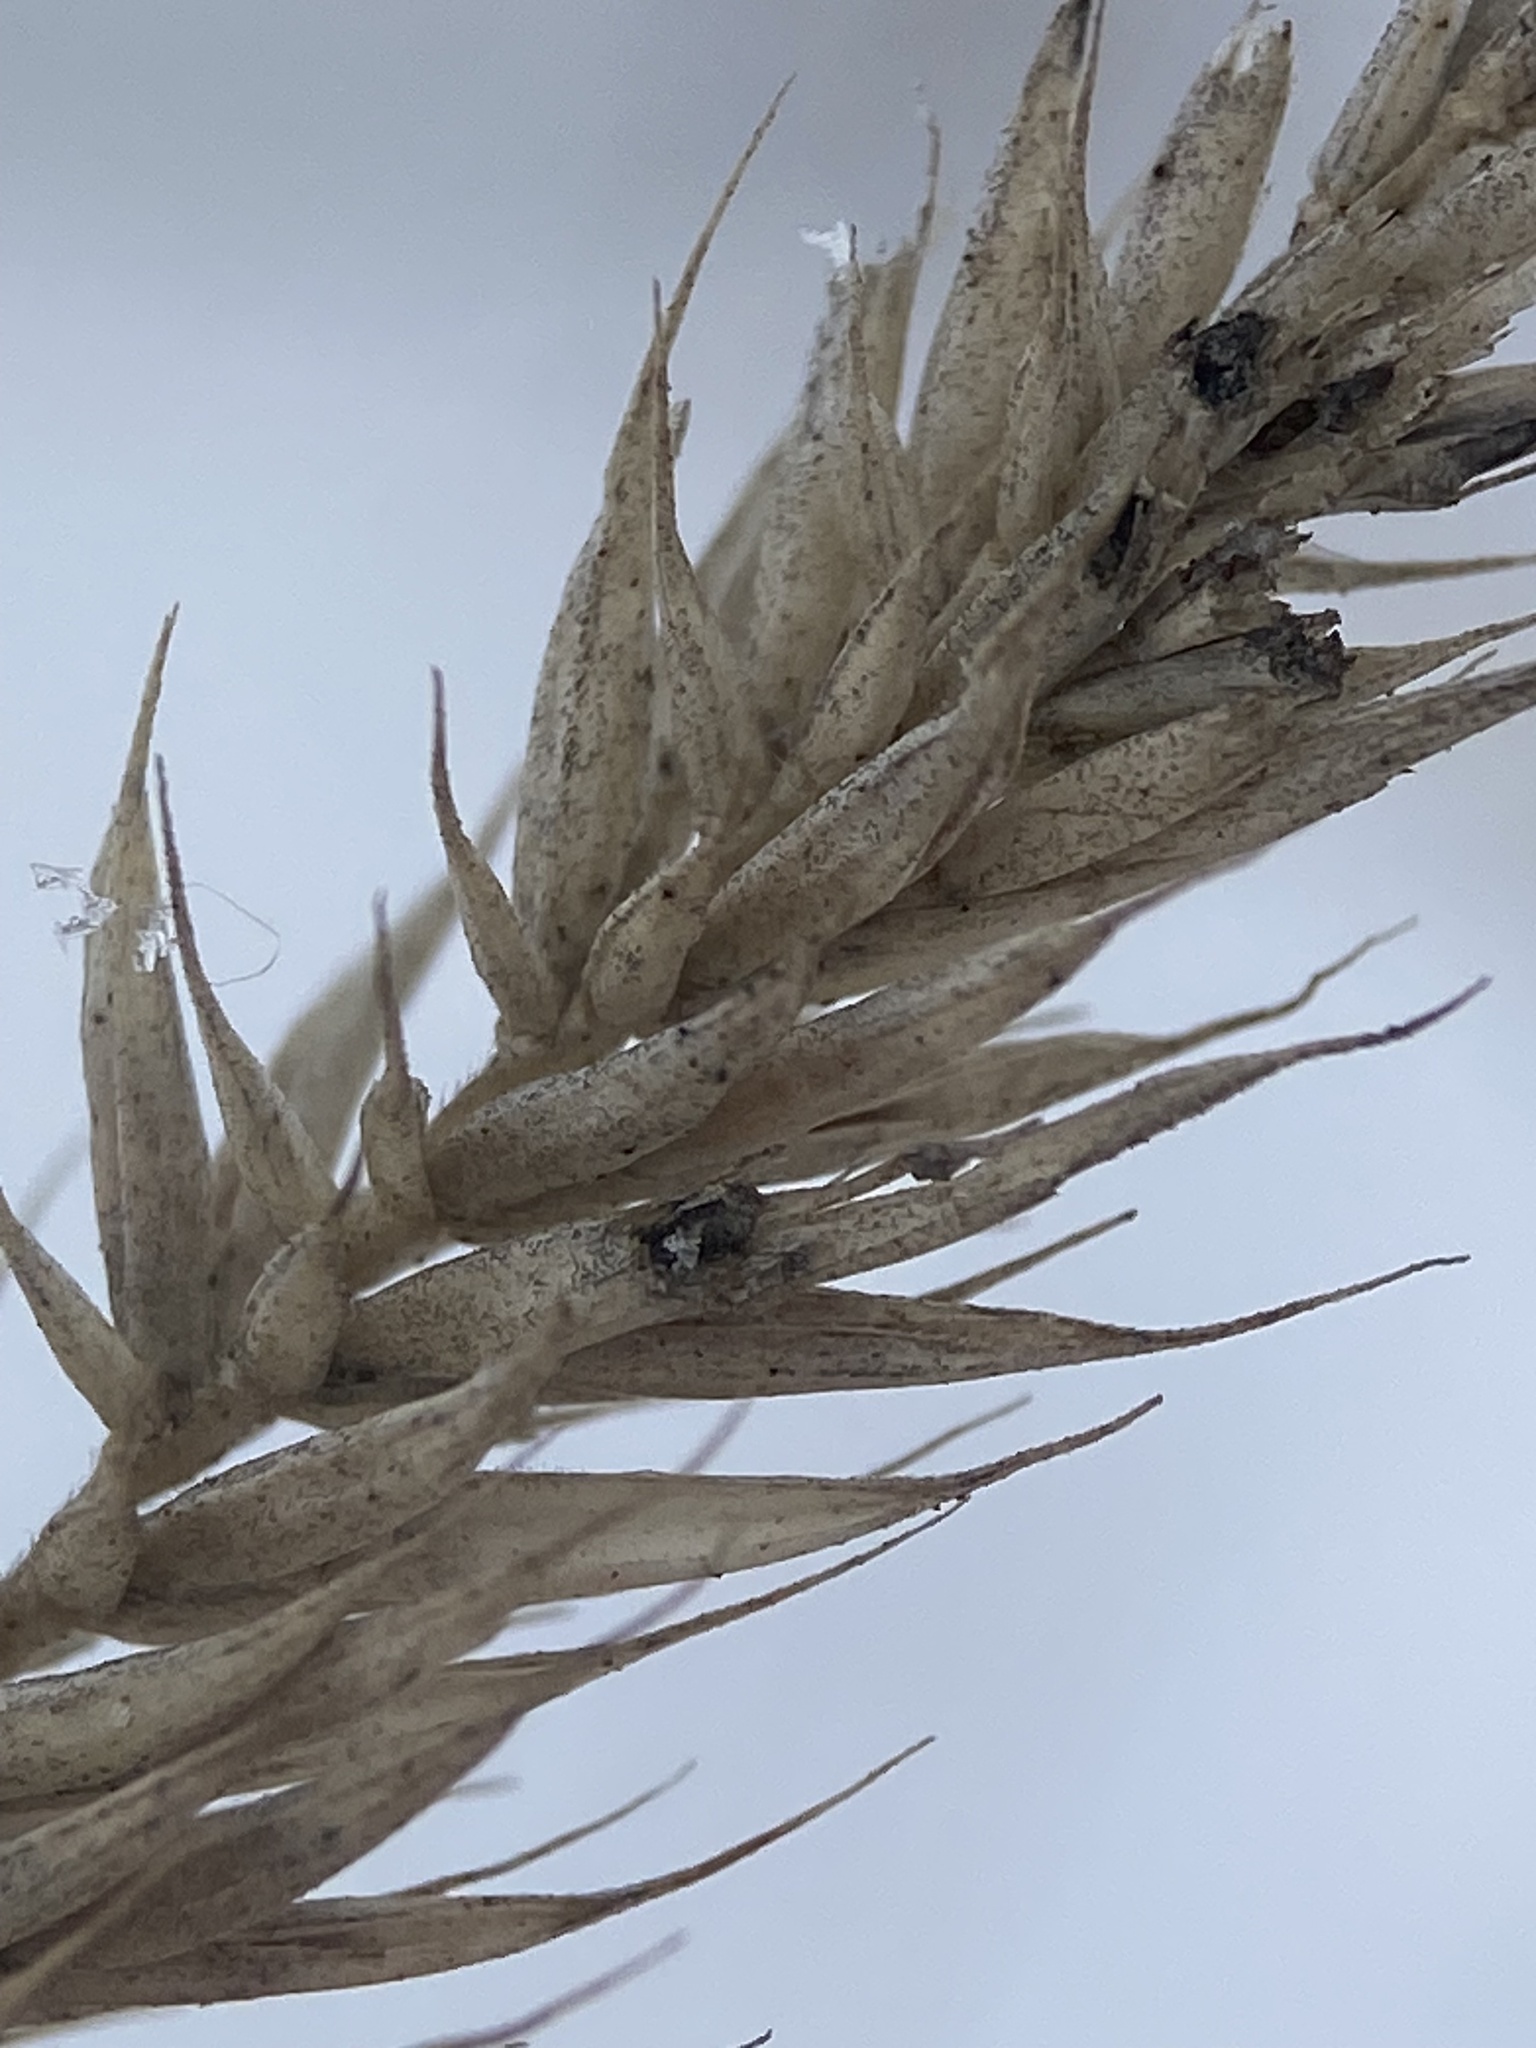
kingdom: Plantae
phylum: Tracheophyta
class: Liliopsida
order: Poales
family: Poaceae
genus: Agropyron
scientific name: Agropyron cristatum
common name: Crested wheatgrass
